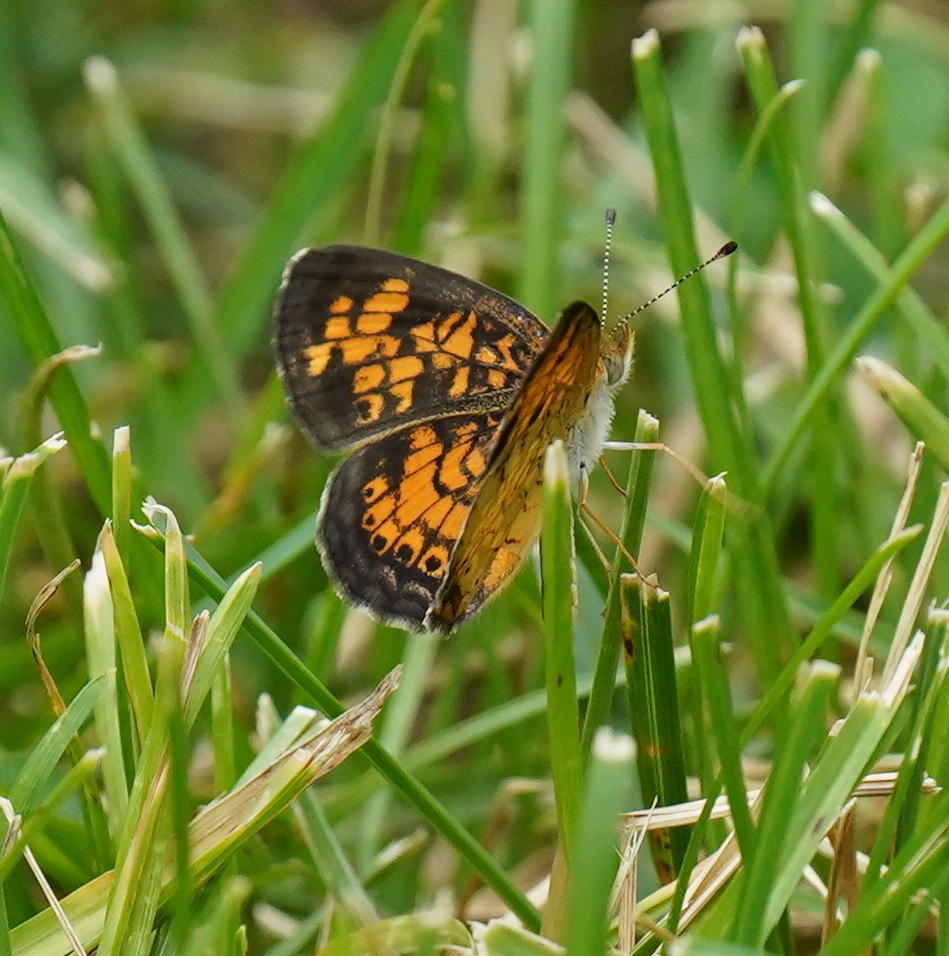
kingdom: Animalia
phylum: Arthropoda
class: Insecta
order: Lepidoptera
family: Nymphalidae
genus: Phyciodes
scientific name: Phyciodes tharos
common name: Pearl crescent
